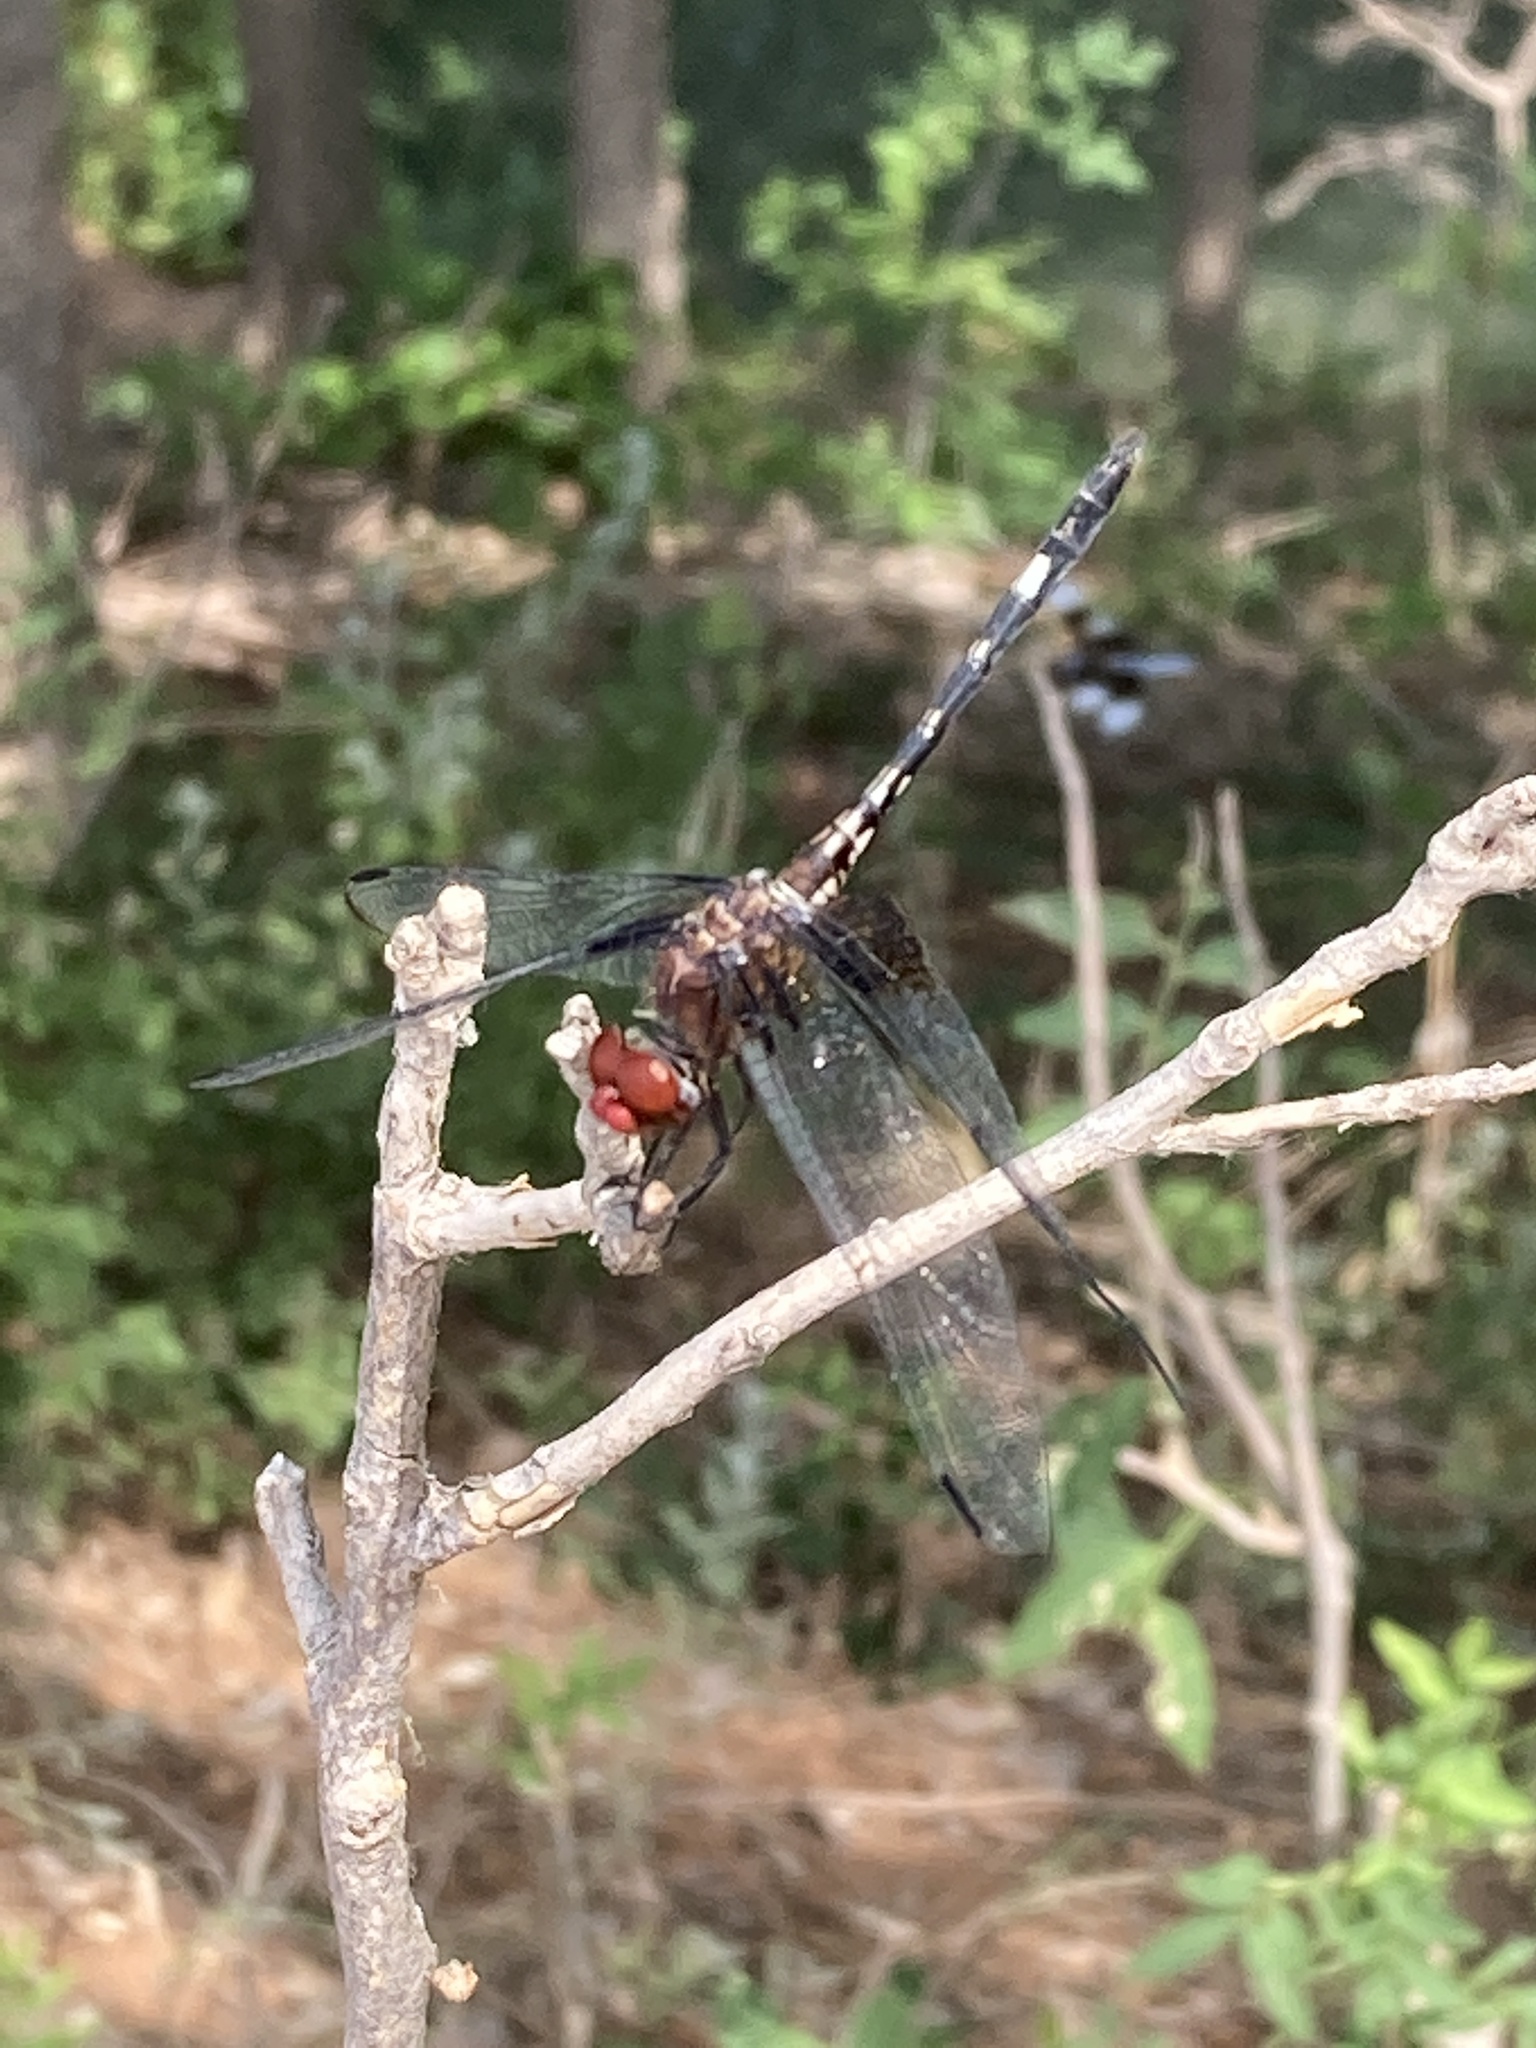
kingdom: Animalia
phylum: Arthropoda
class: Insecta
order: Odonata
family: Libellulidae
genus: Dythemis
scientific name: Dythemis fugax
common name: Checkered setwing
